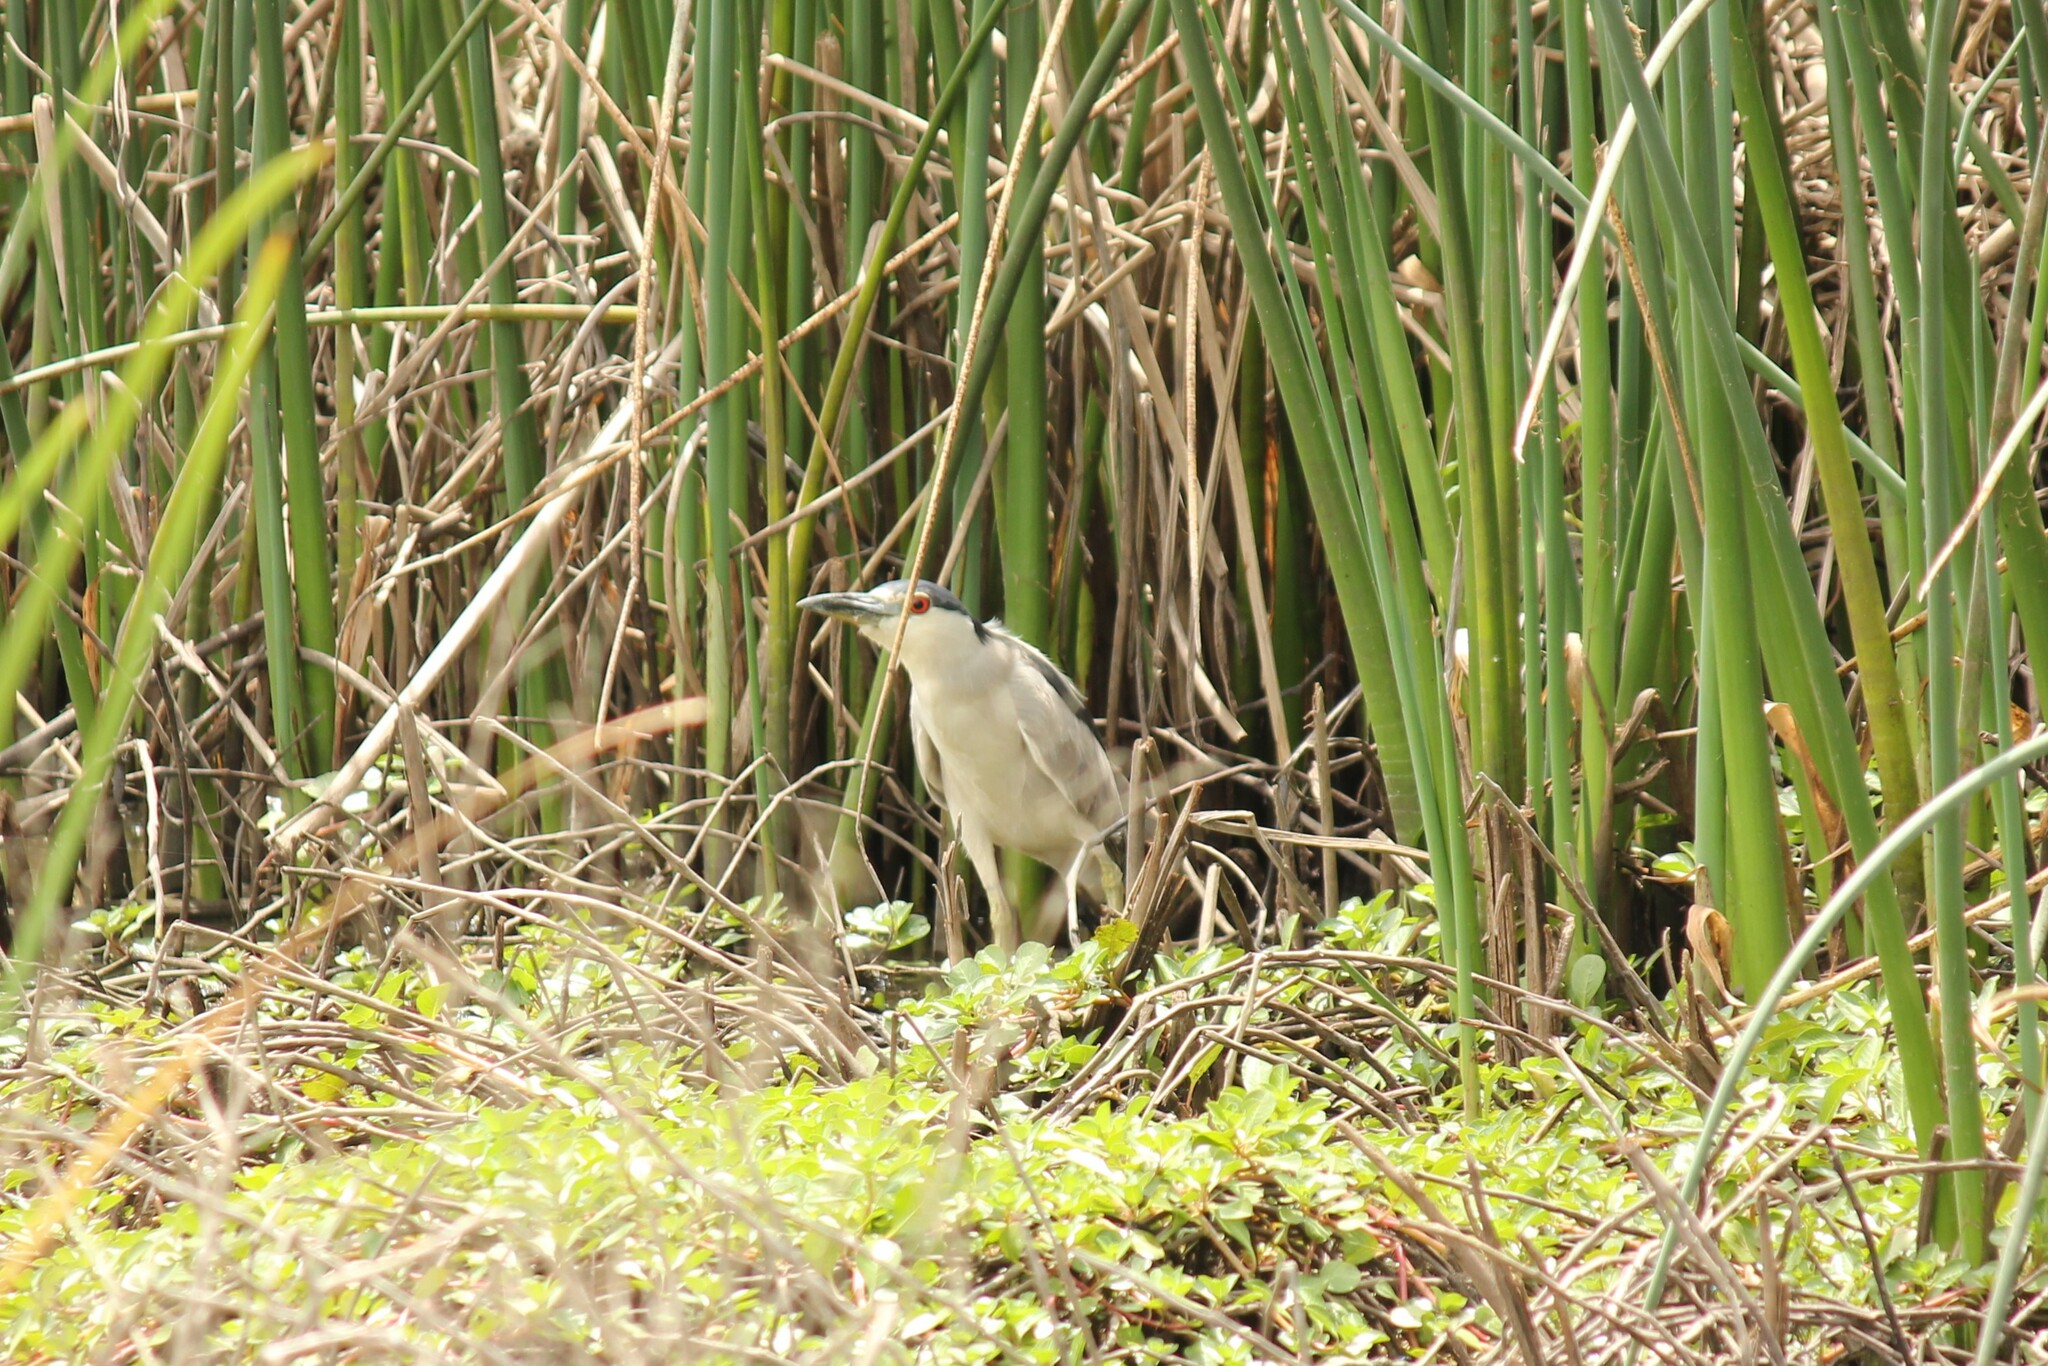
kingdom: Animalia
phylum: Chordata
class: Aves
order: Pelecaniformes
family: Ardeidae
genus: Nycticorax
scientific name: Nycticorax nycticorax
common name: Black-crowned night heron
